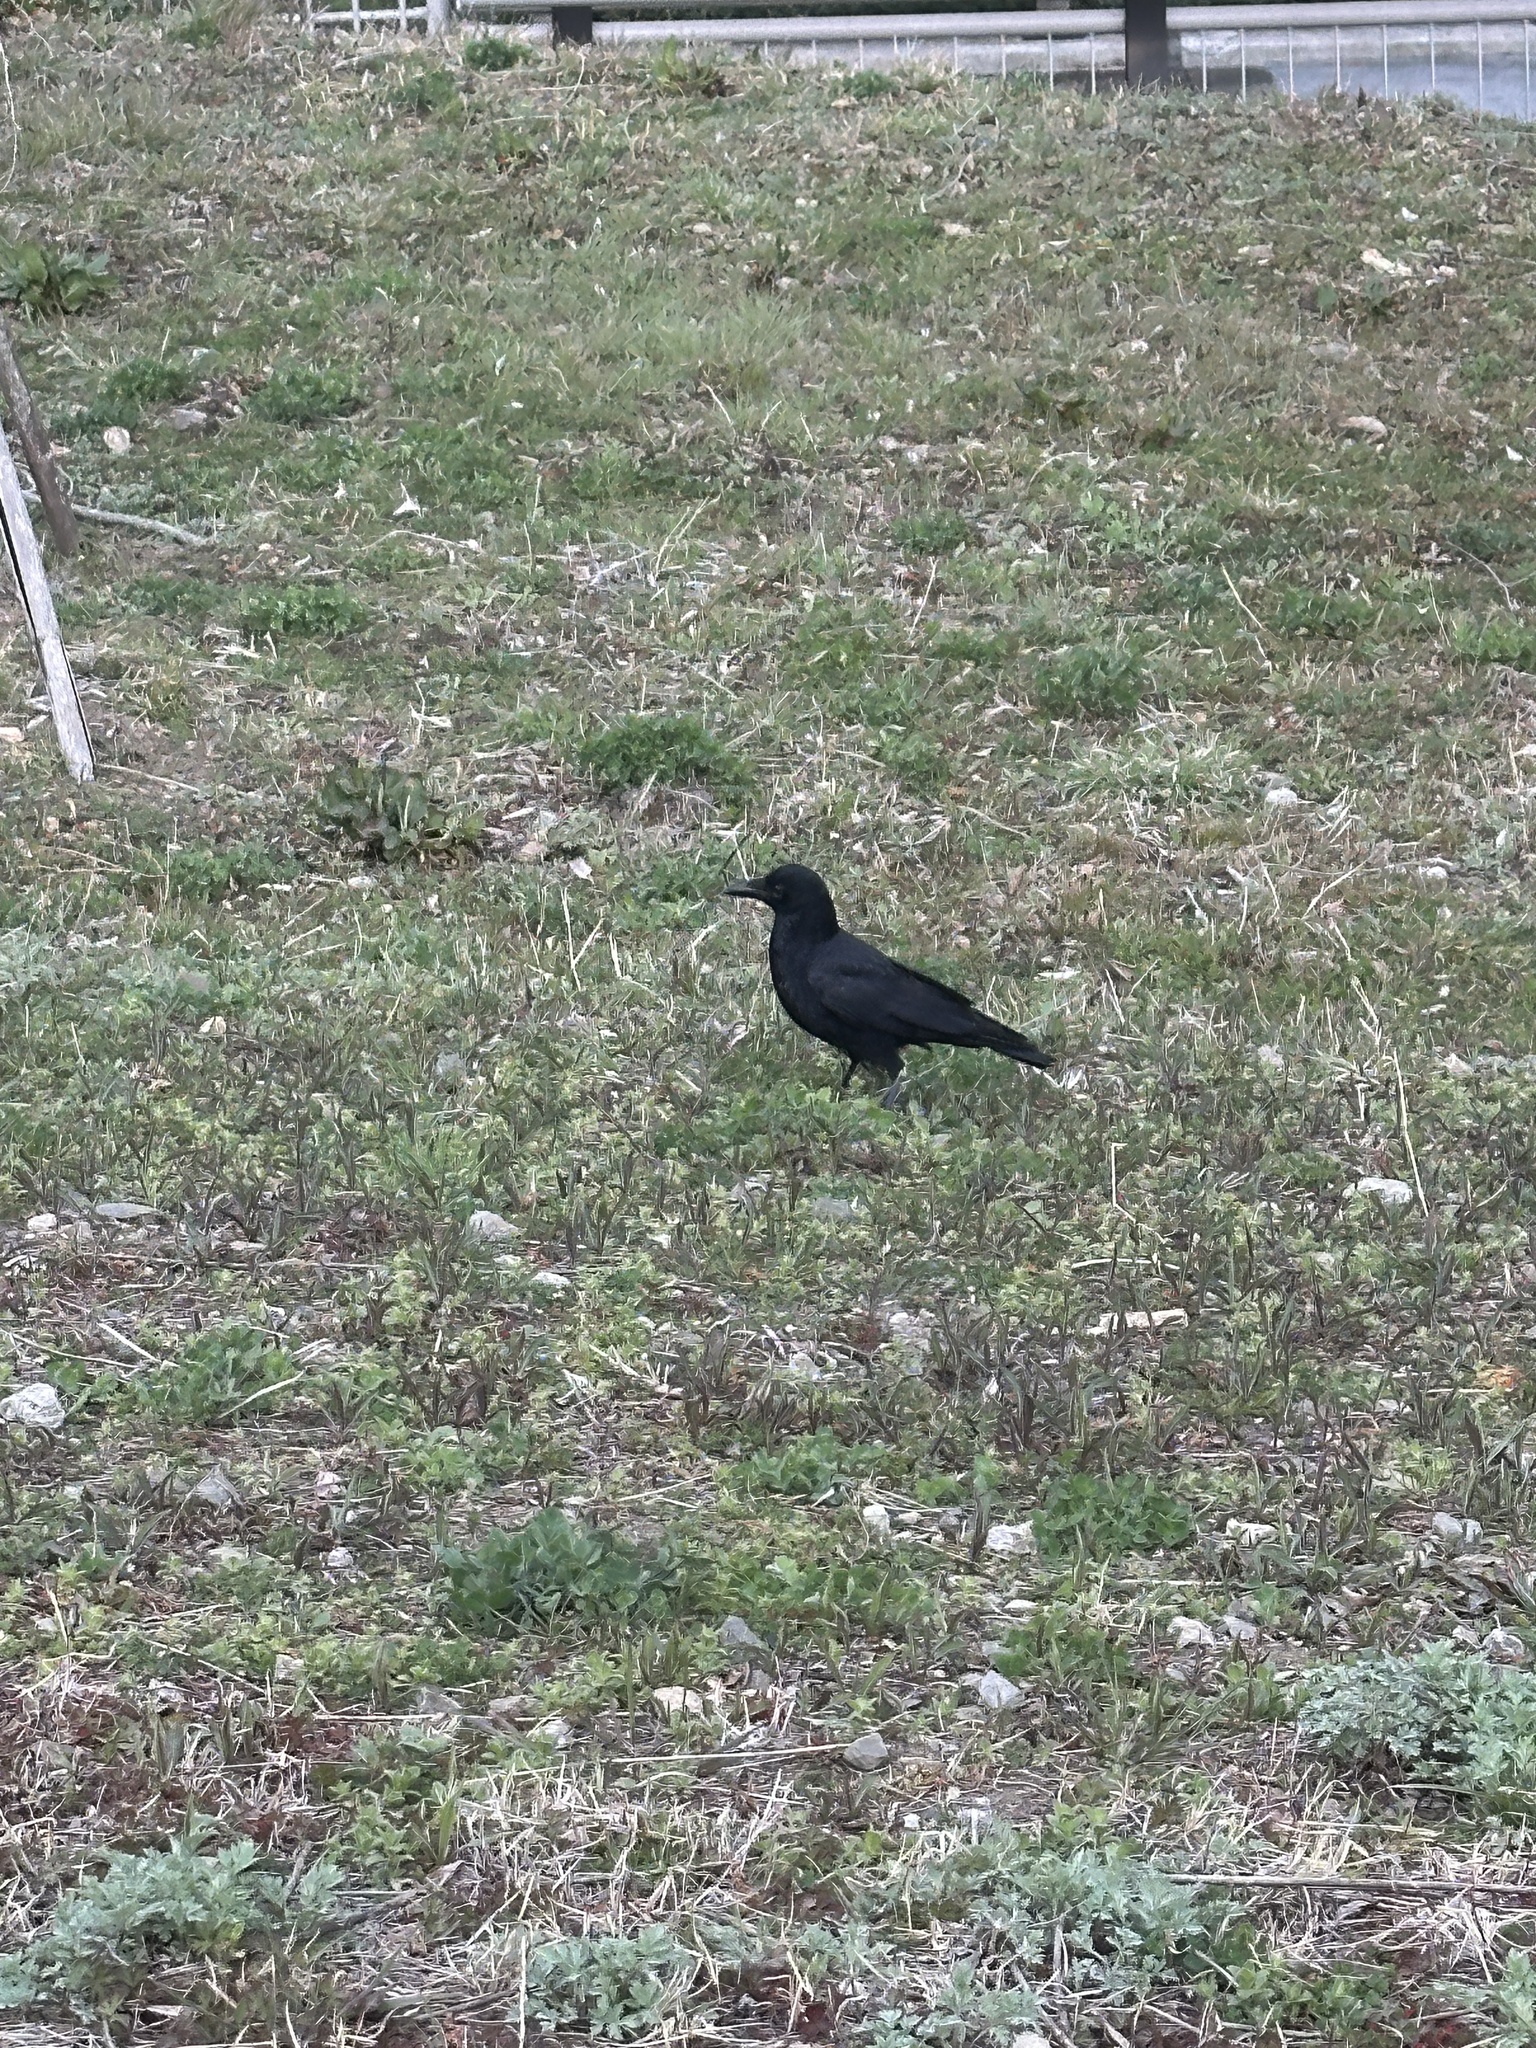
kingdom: Animalia
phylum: Chordata
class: Aves
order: Passeriformes
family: Corvidae
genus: Corvus
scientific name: Corvus corone
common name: Carrion crow
